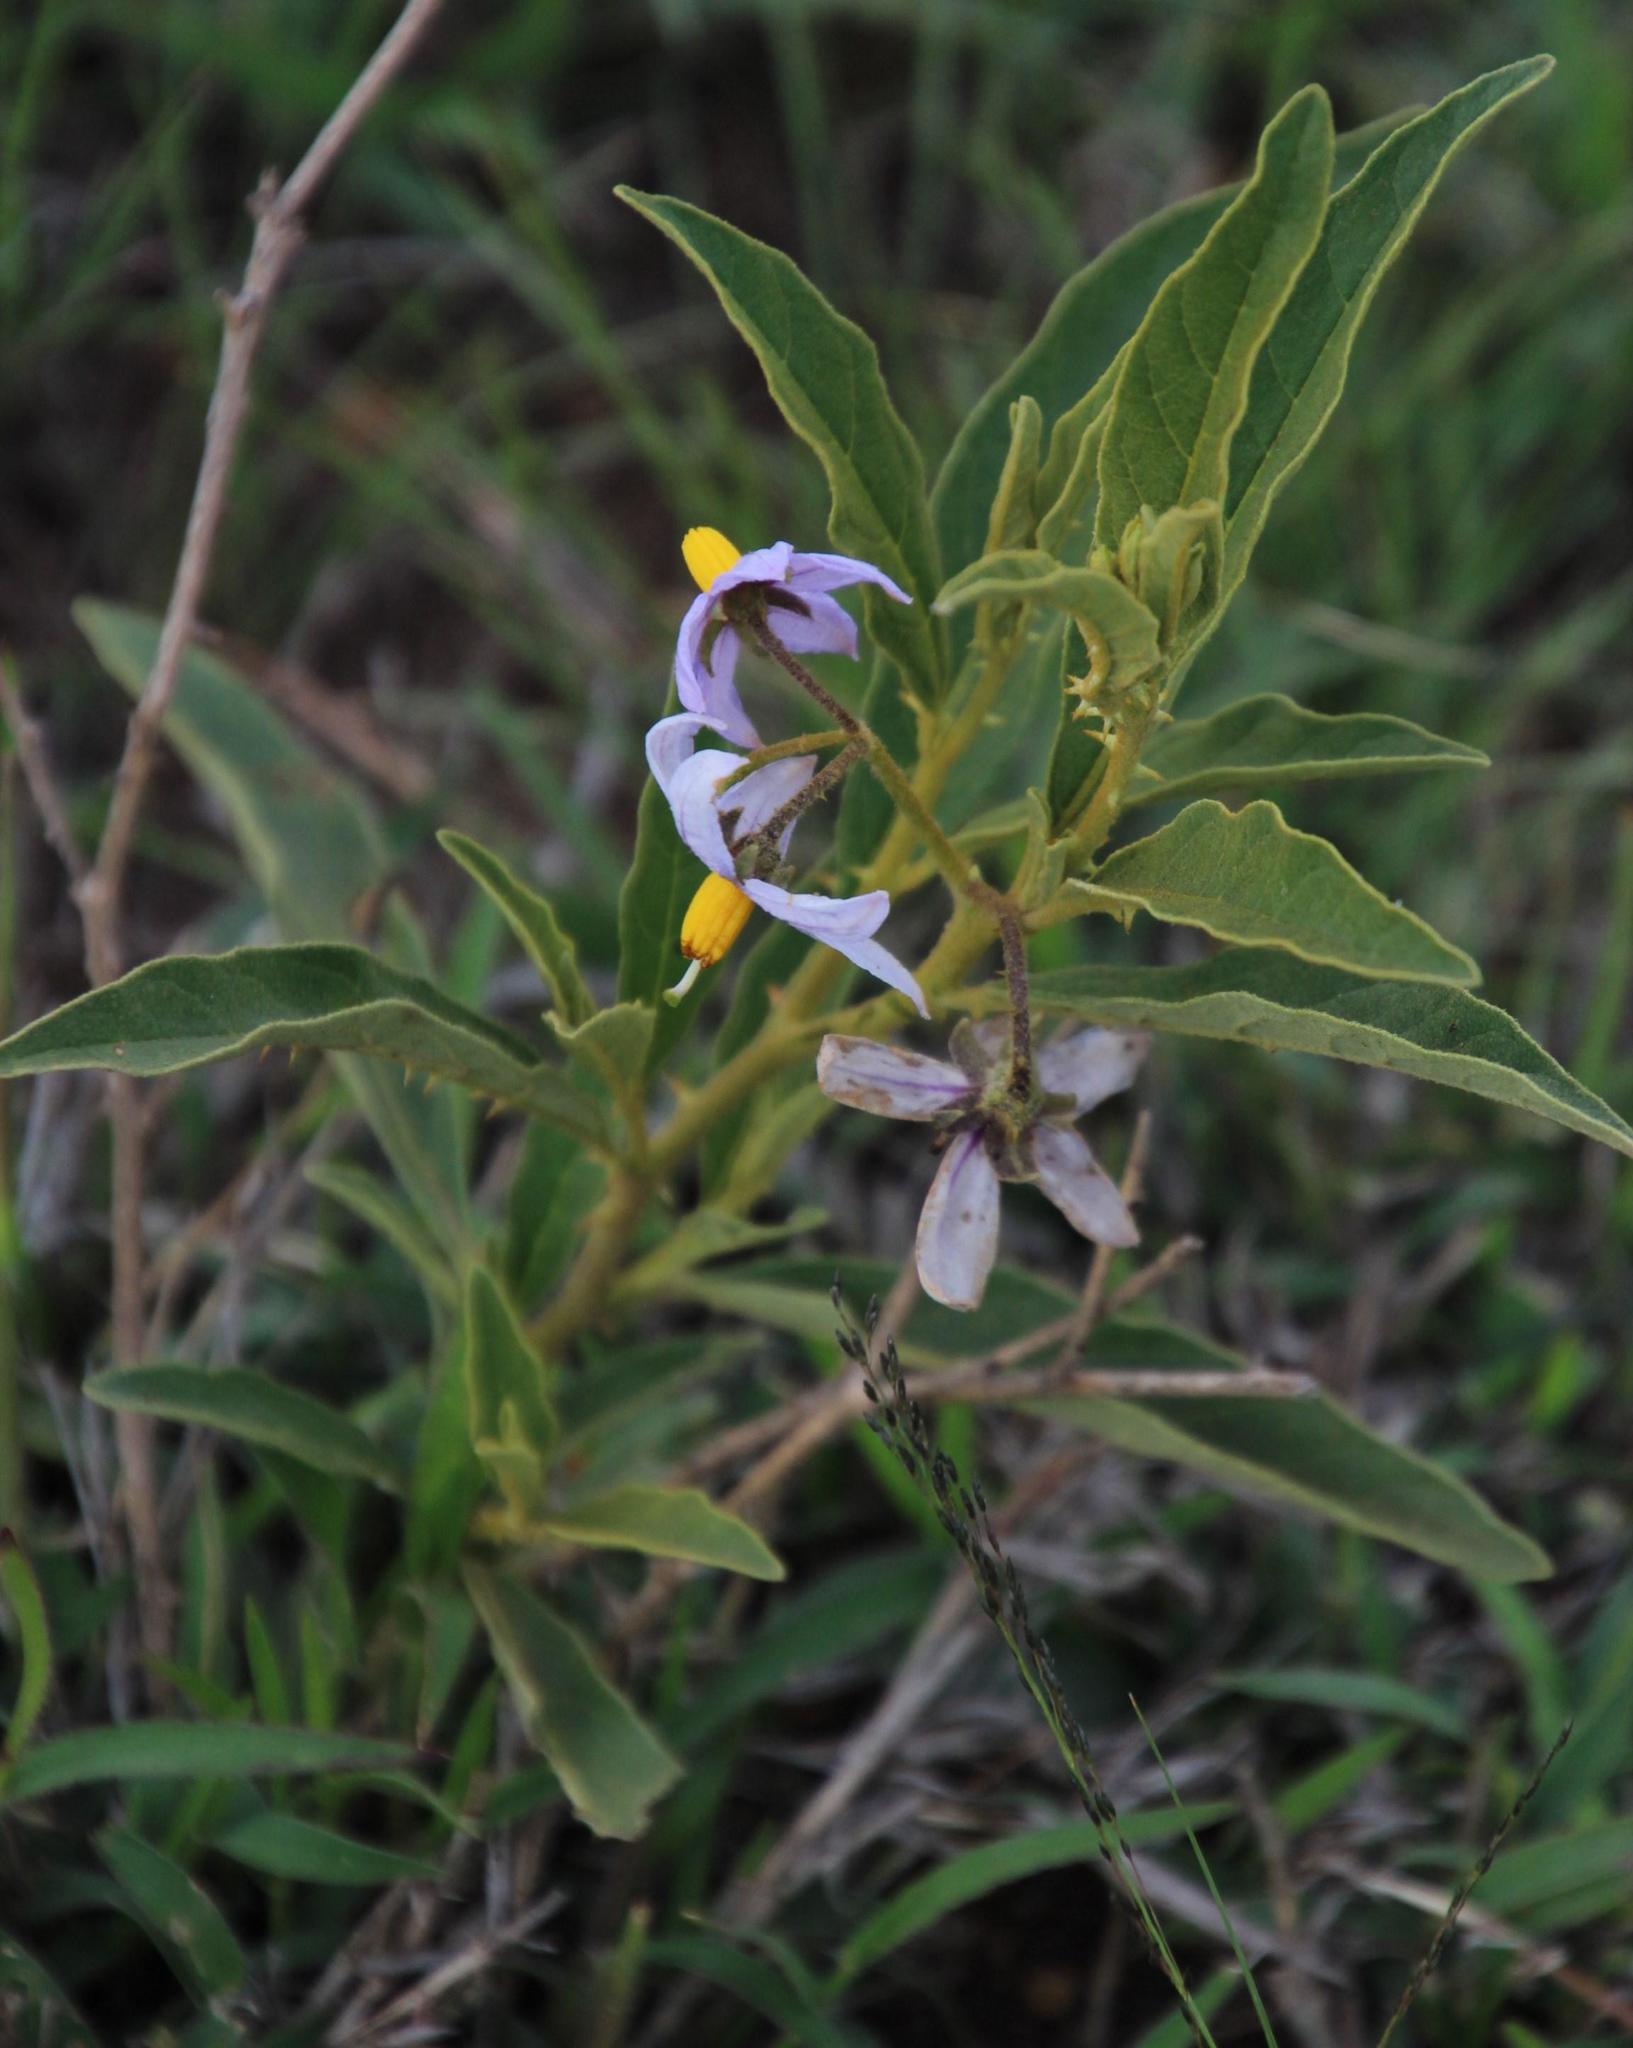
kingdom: Plantae
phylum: Tracheophyta
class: Magnoliopsida
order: Solanales
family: Solanaceae
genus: Solanum
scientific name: Solanum campylacanthum
